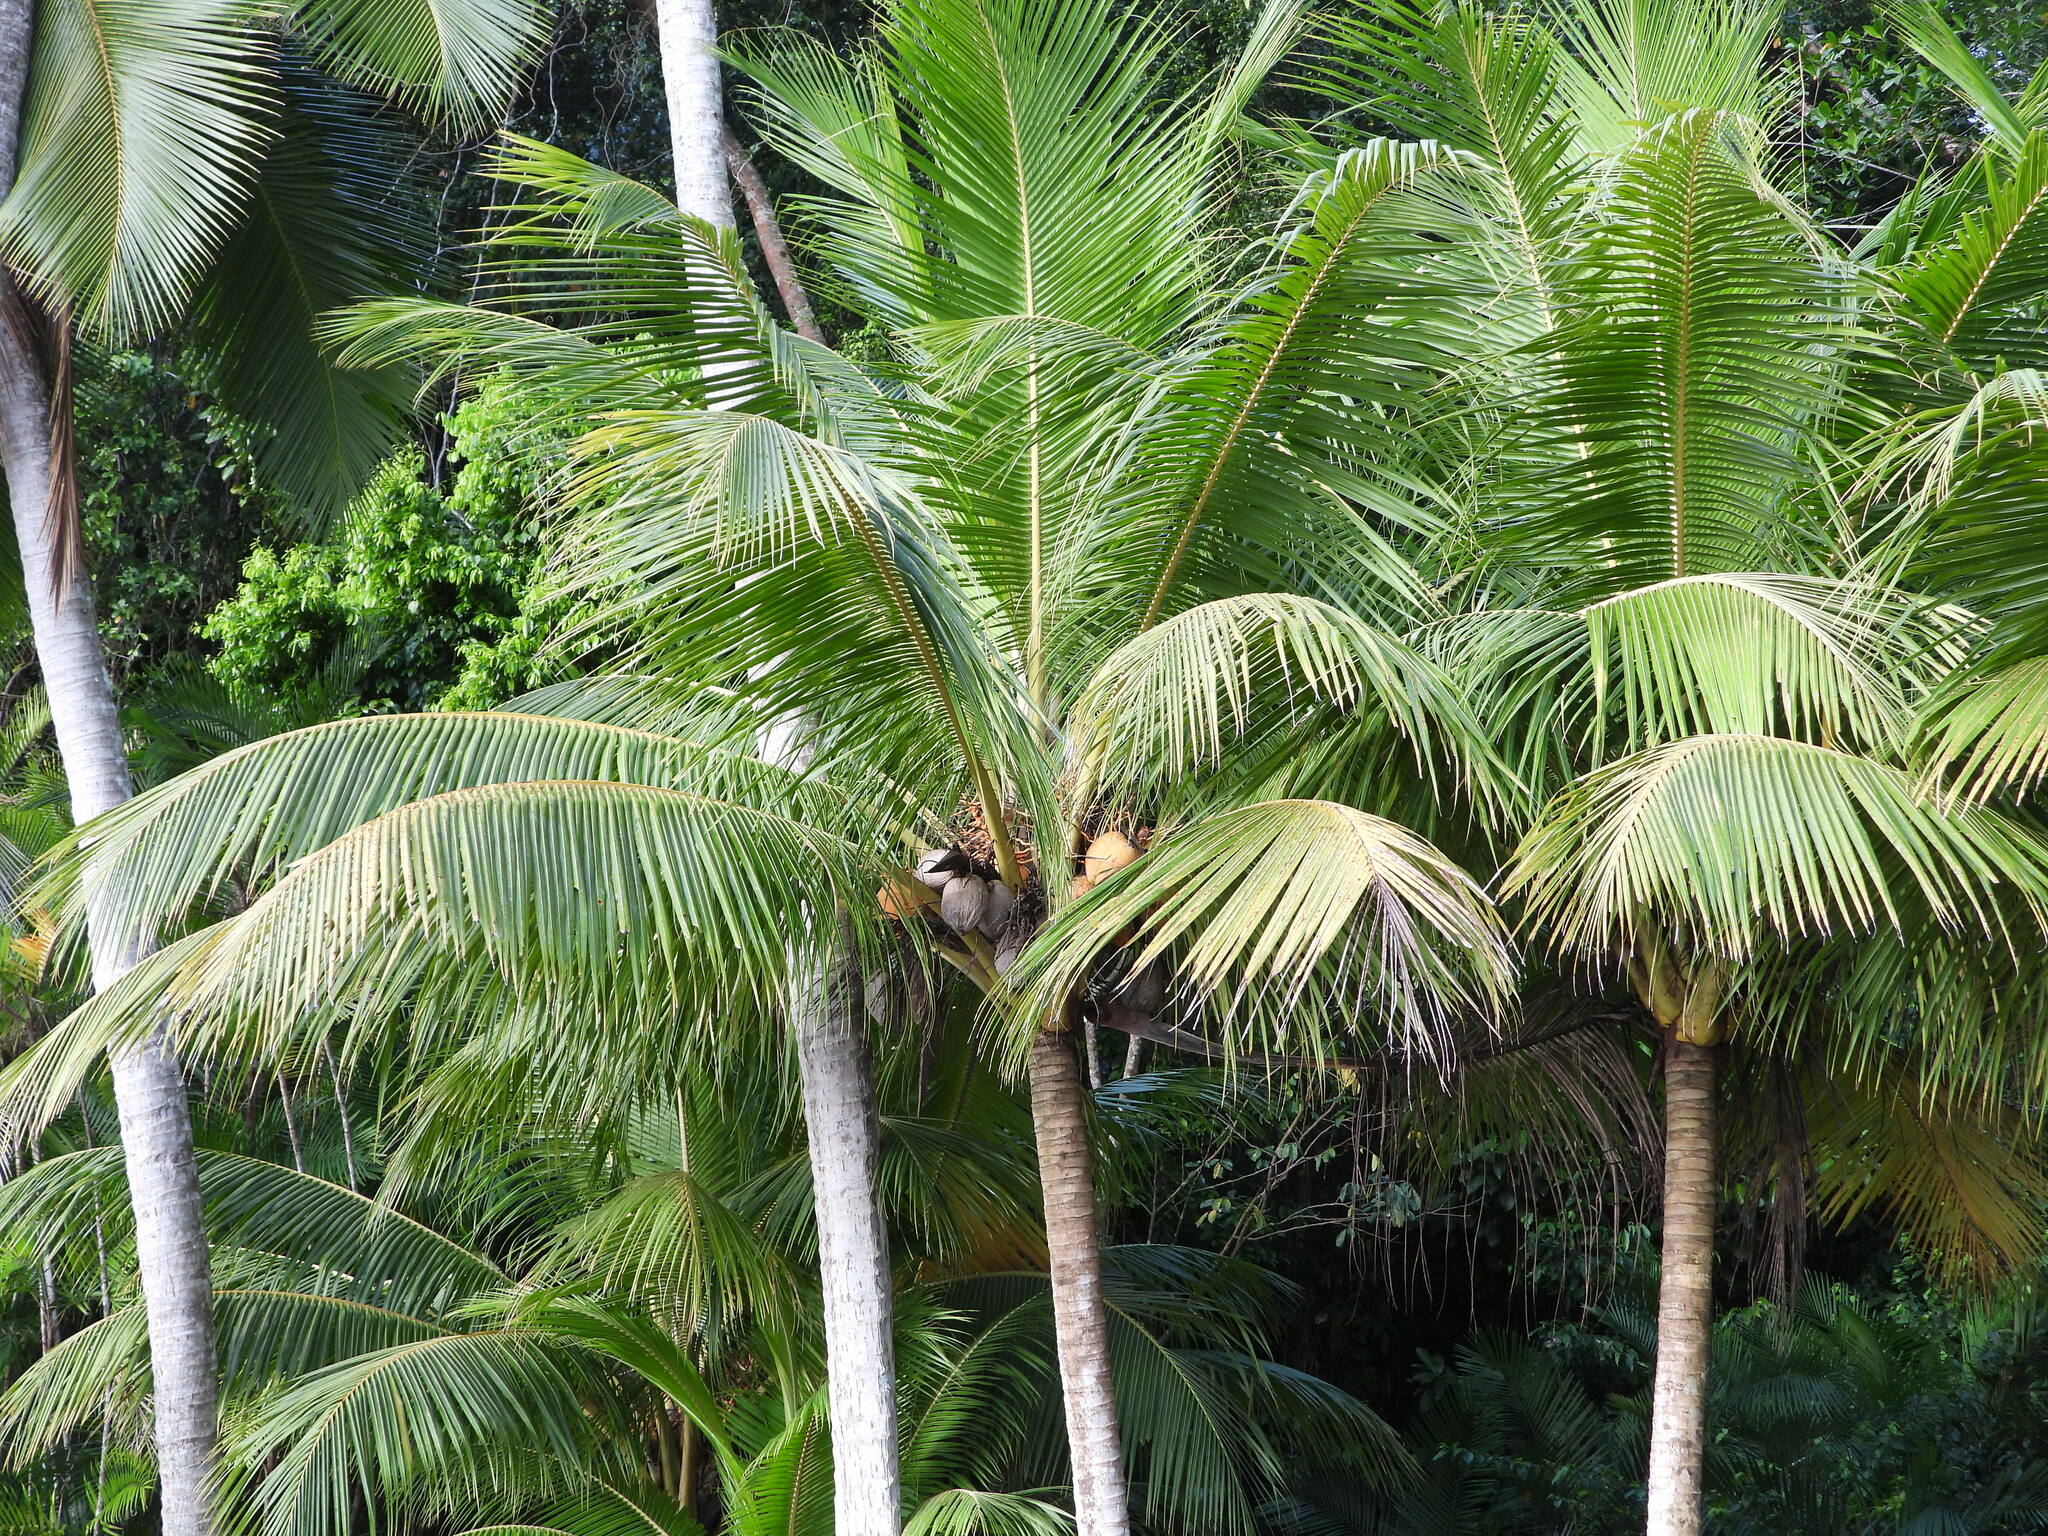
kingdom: Plantae
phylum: Tracheophyta
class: Liliopsida
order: Arecales
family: Arecaceae
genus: Cocos
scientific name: Cocos nucifera
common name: Coconut palm
